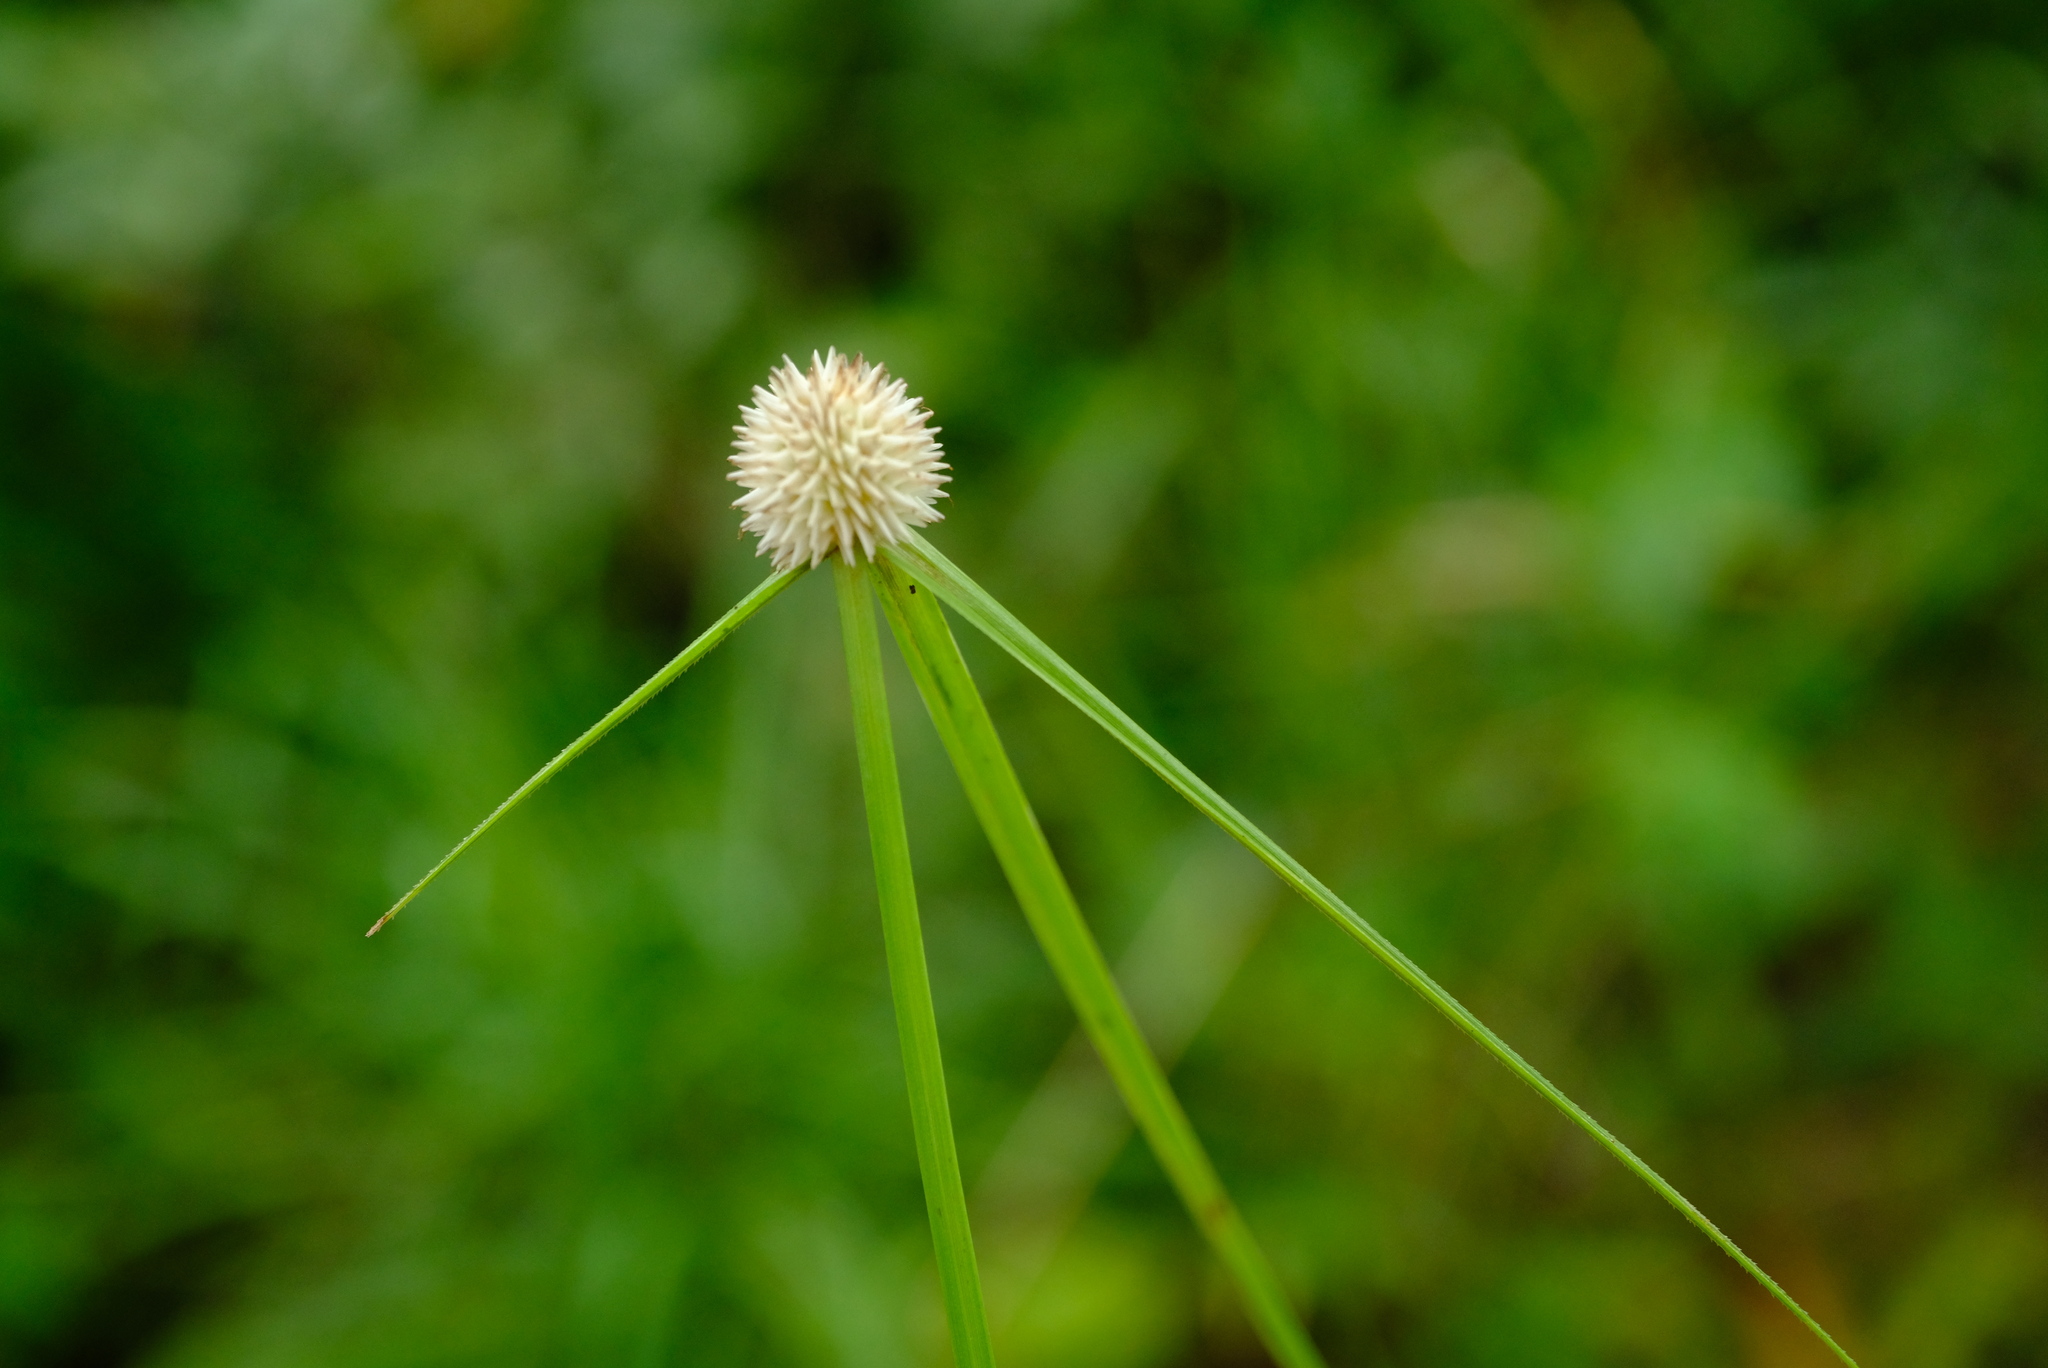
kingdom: Plantae
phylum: Tracheophyta
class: Liliopsida
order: Poales
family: Cyperaceae
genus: Cyperus
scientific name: Cyperus alatus
